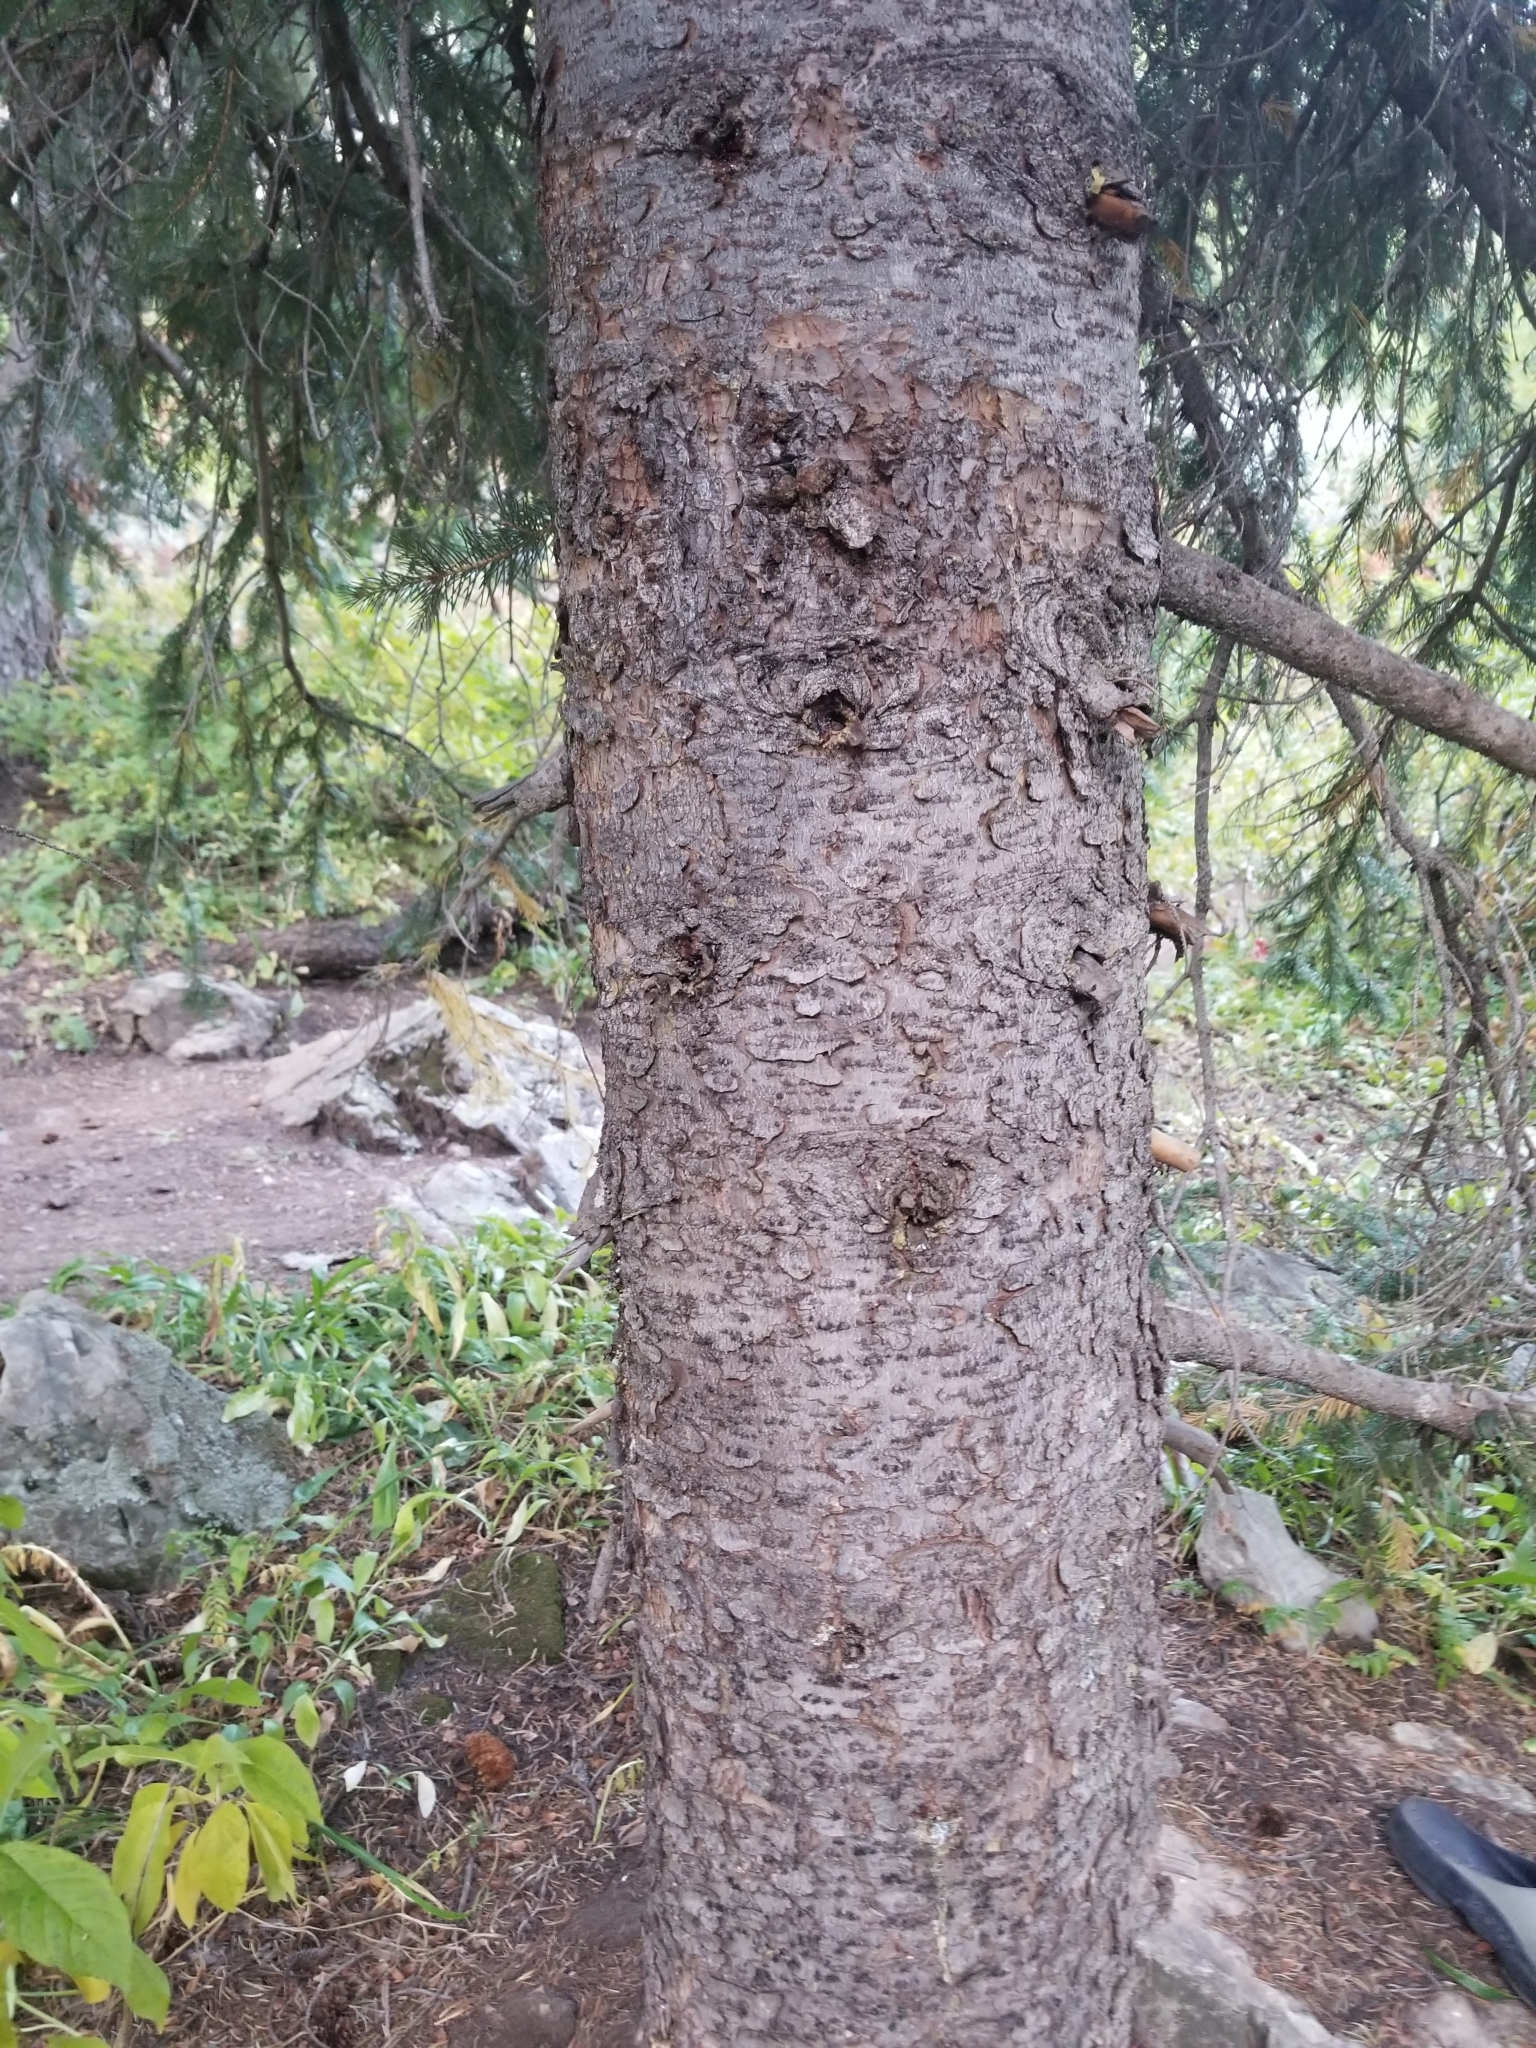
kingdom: Plantae
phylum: Tracheophyta
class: Pinopsida
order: Pinales
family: Pinaceae
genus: Picea
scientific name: Picea engelmannii
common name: Engelmann spruce
